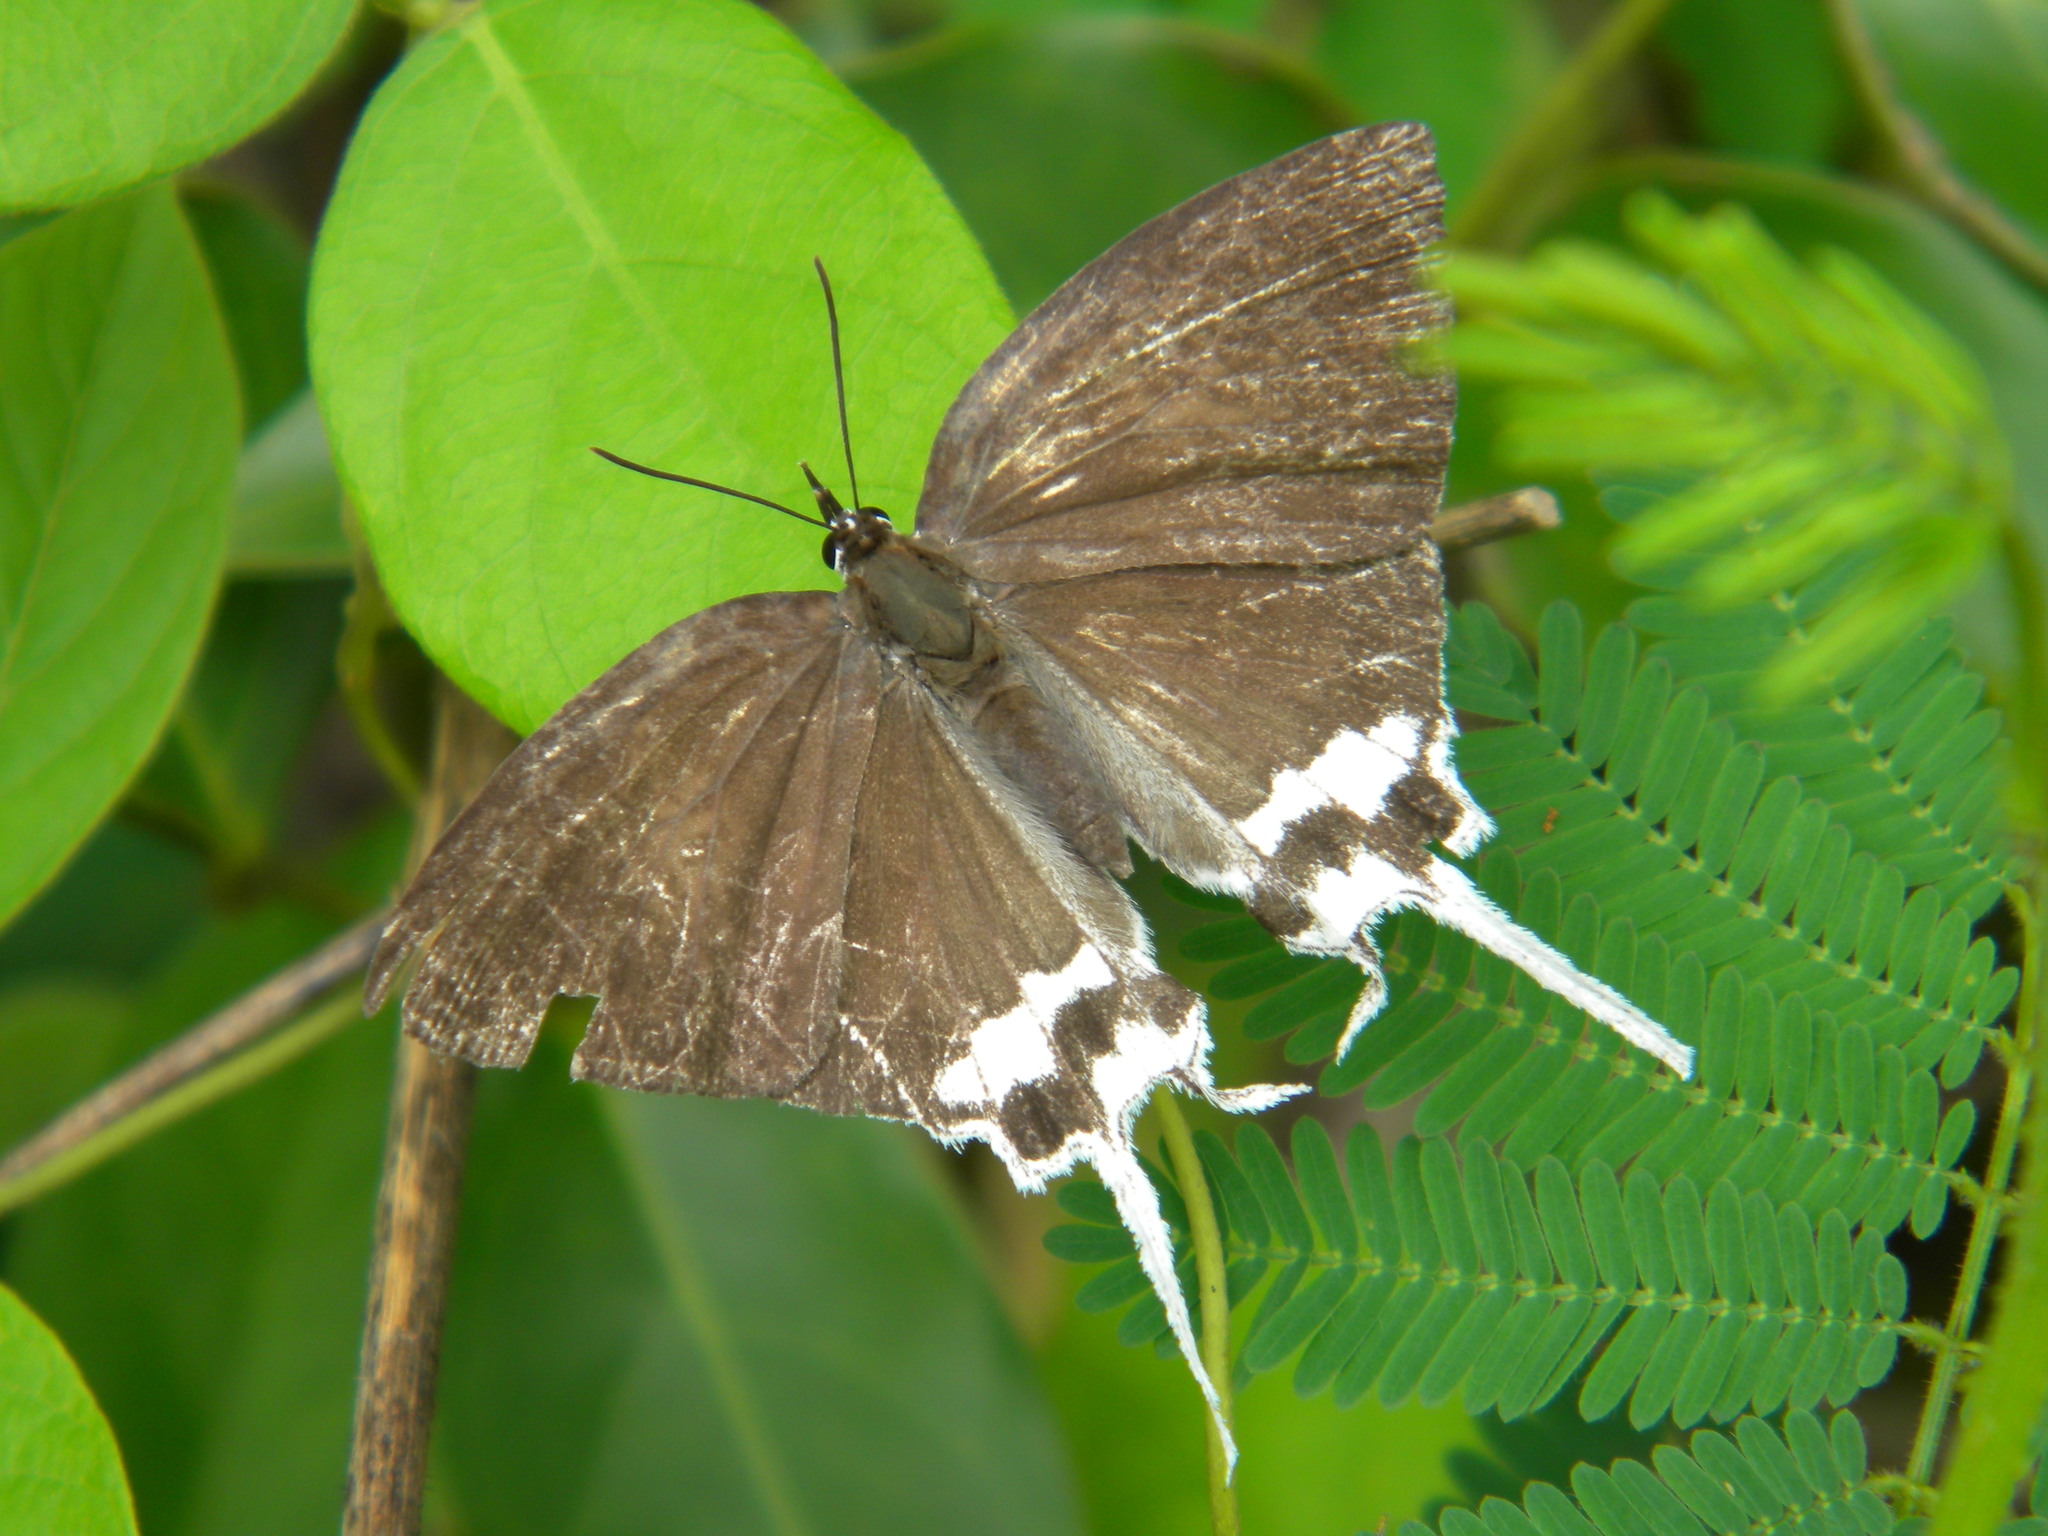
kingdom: Animalia
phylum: Arthropoda
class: Insecta
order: Lepidoptera
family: Lycaenidae
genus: Cheritra
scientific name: Cheritra freja
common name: Common imperial
